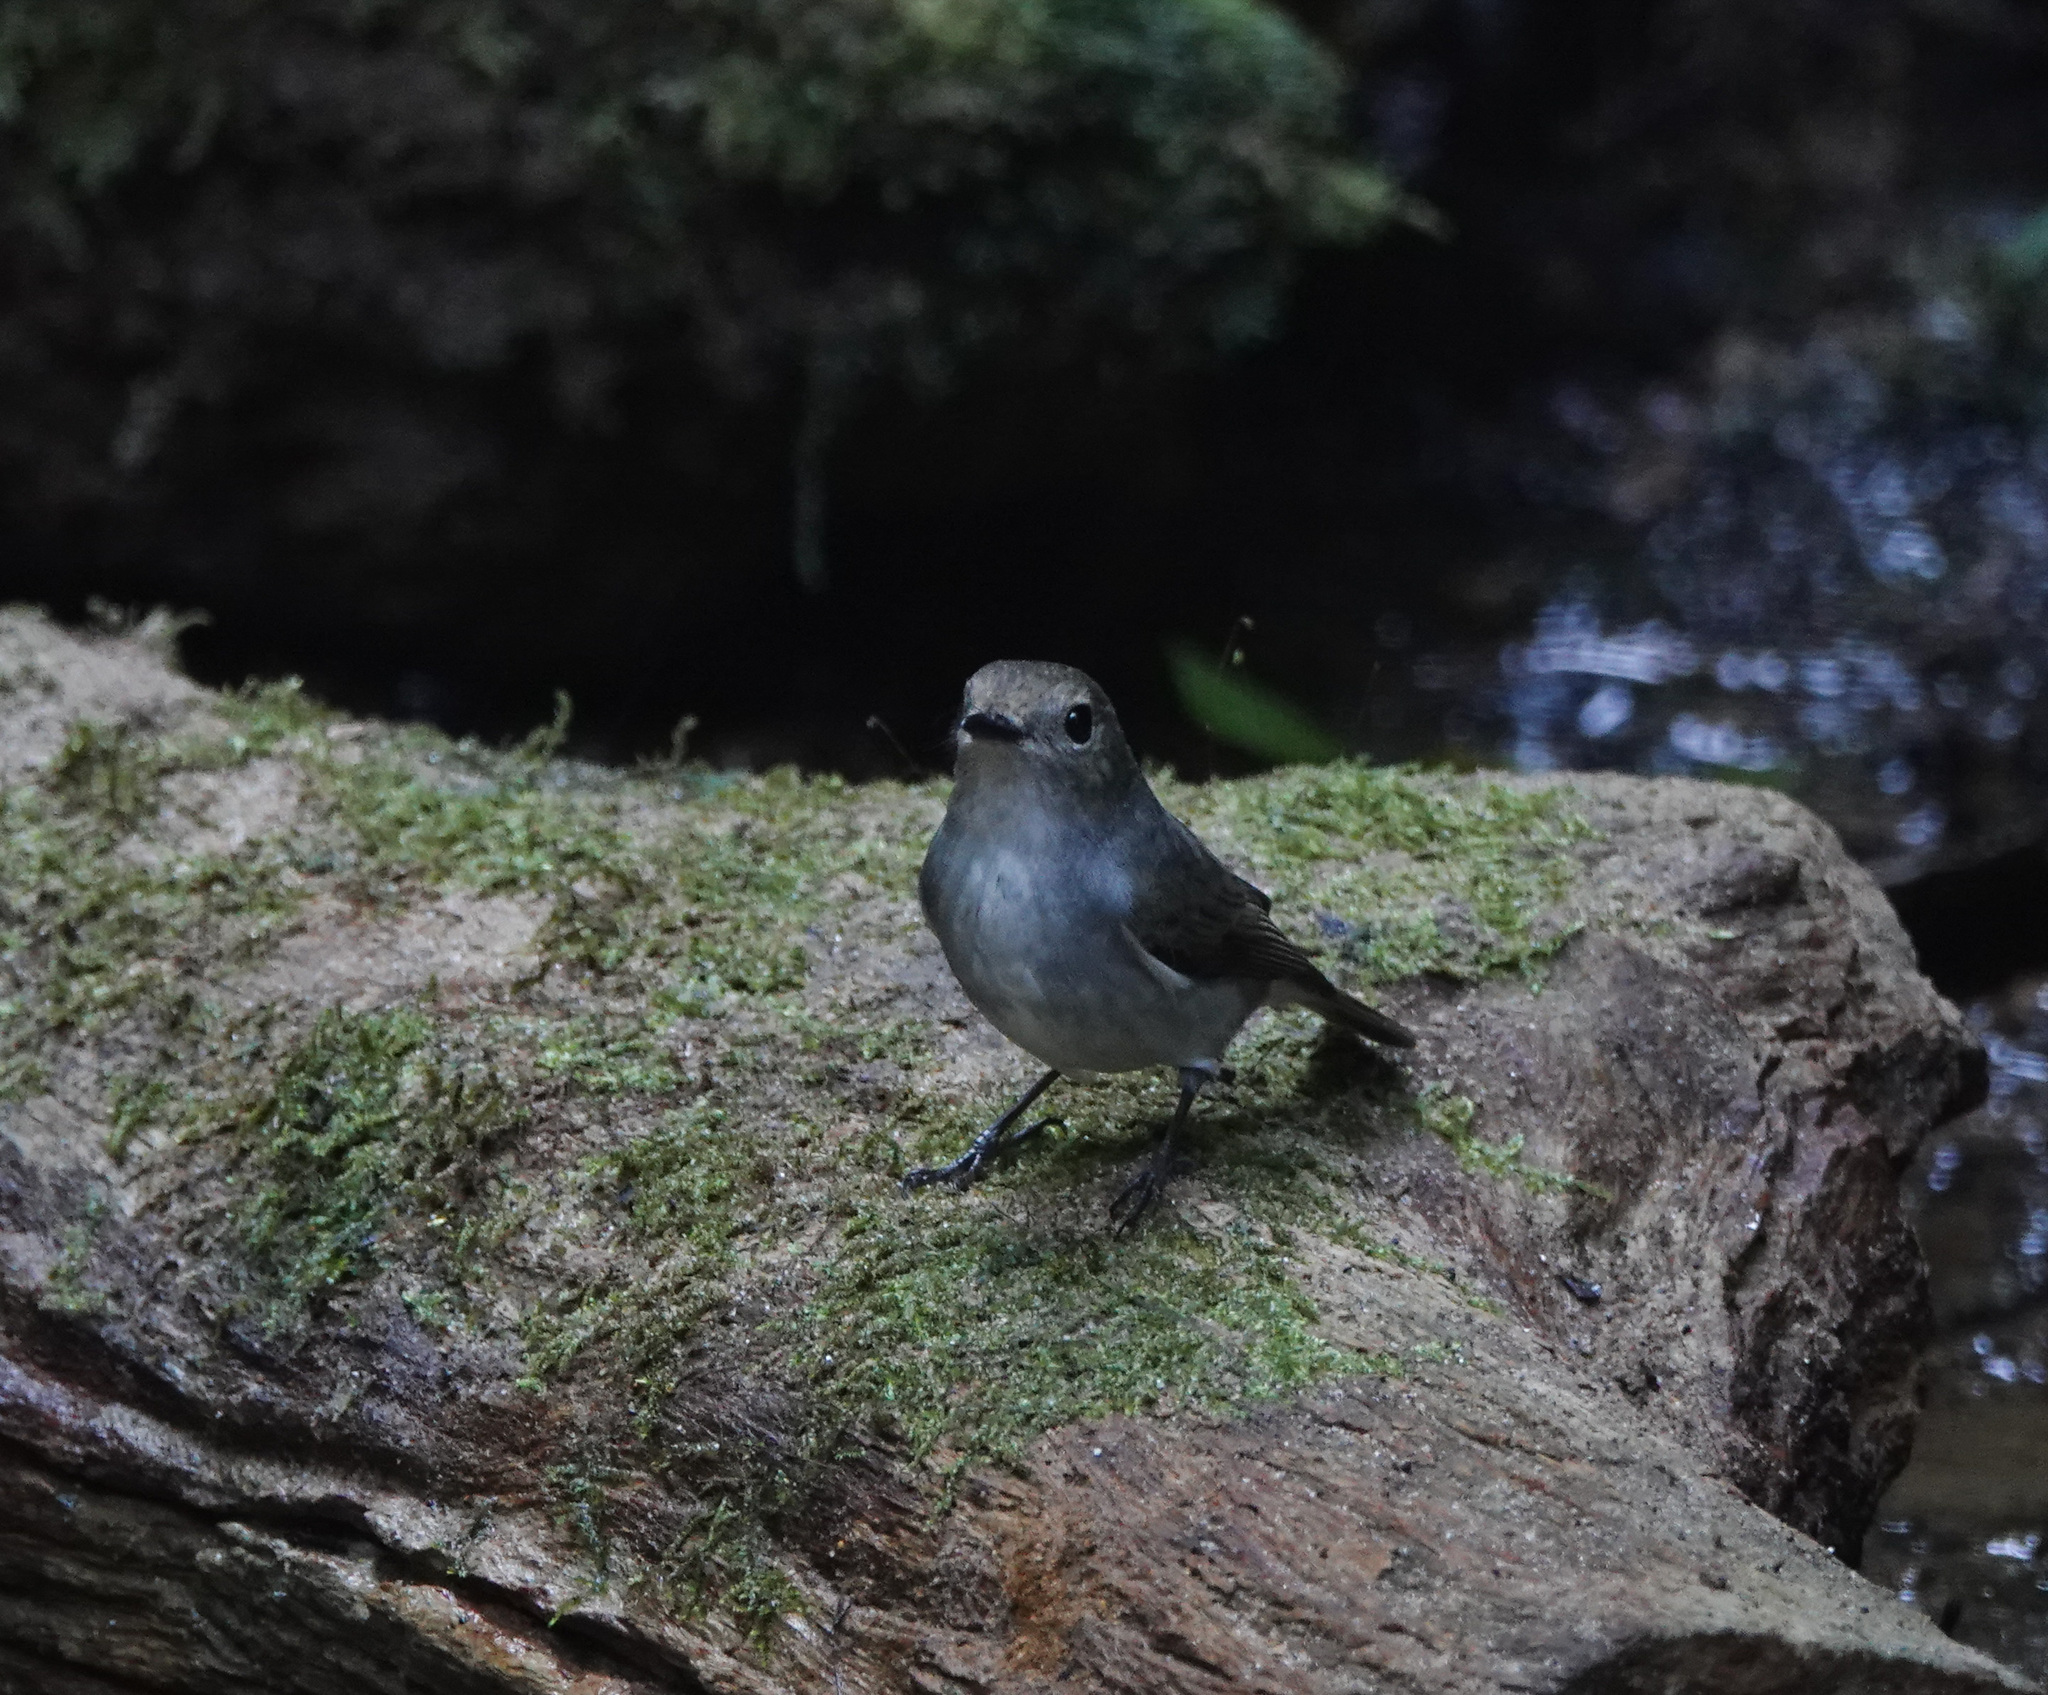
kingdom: Animalia
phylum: Chordata
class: Aves
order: Passeriformes
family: Muscicapidae
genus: Ficedula
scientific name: Ficedula westermanni
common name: Little pied flycatcher
